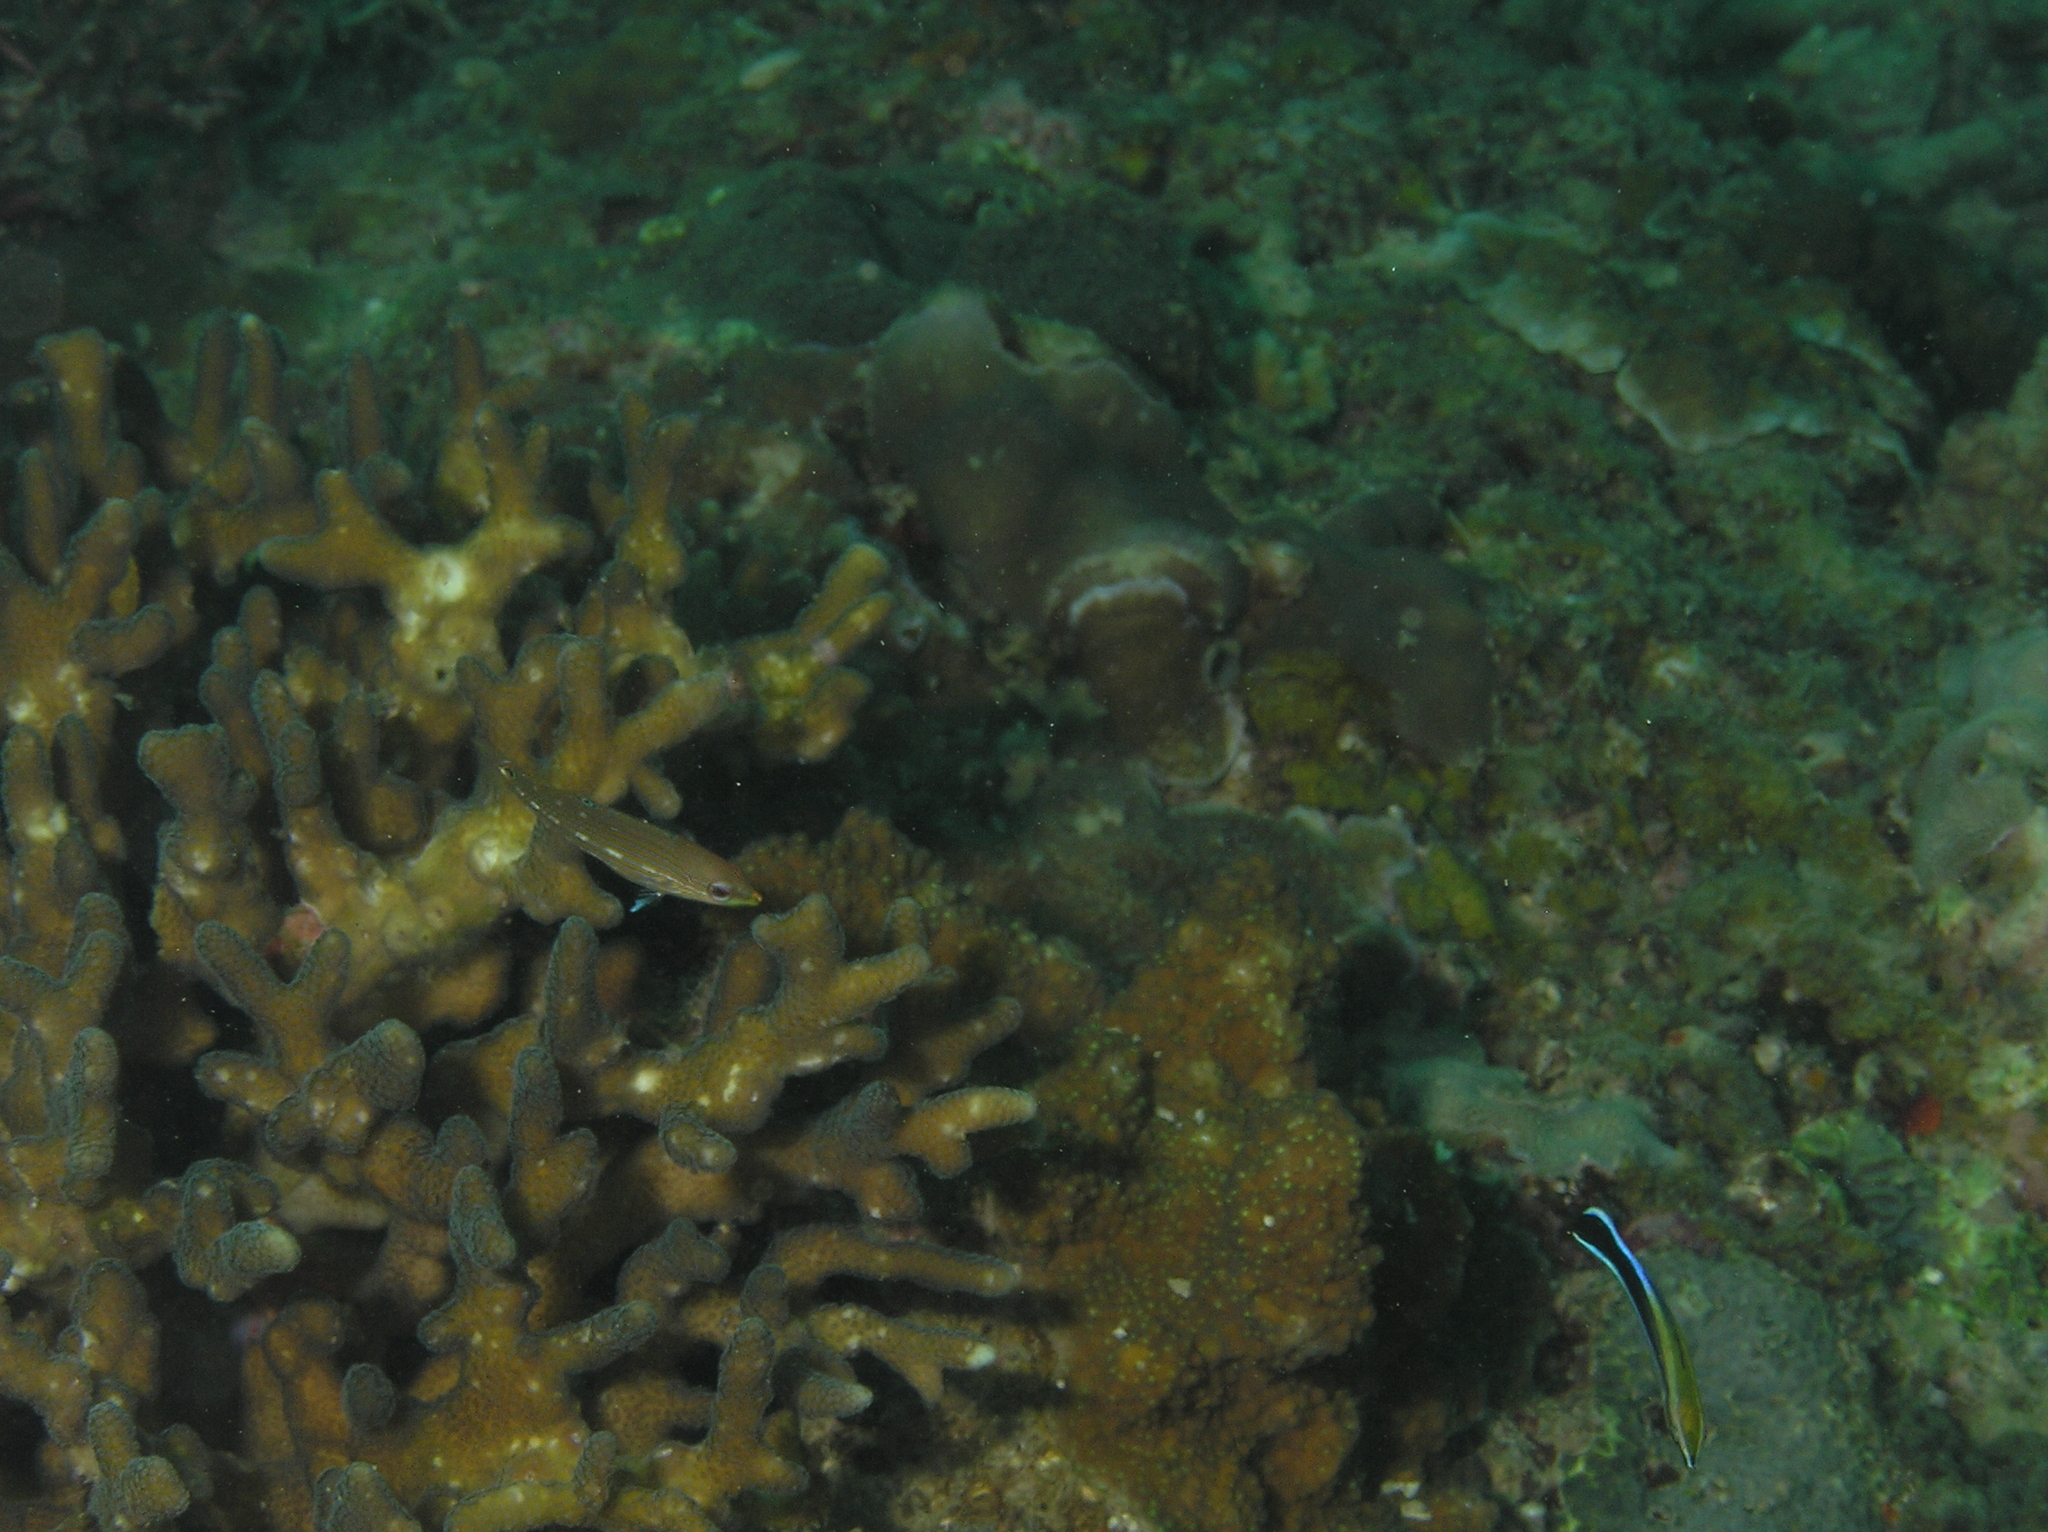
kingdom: Animalia
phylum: Chordata
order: Perciformes
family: Labridae
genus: Labroides
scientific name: Labroides dimidiatus
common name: Blue diesel wrasse
